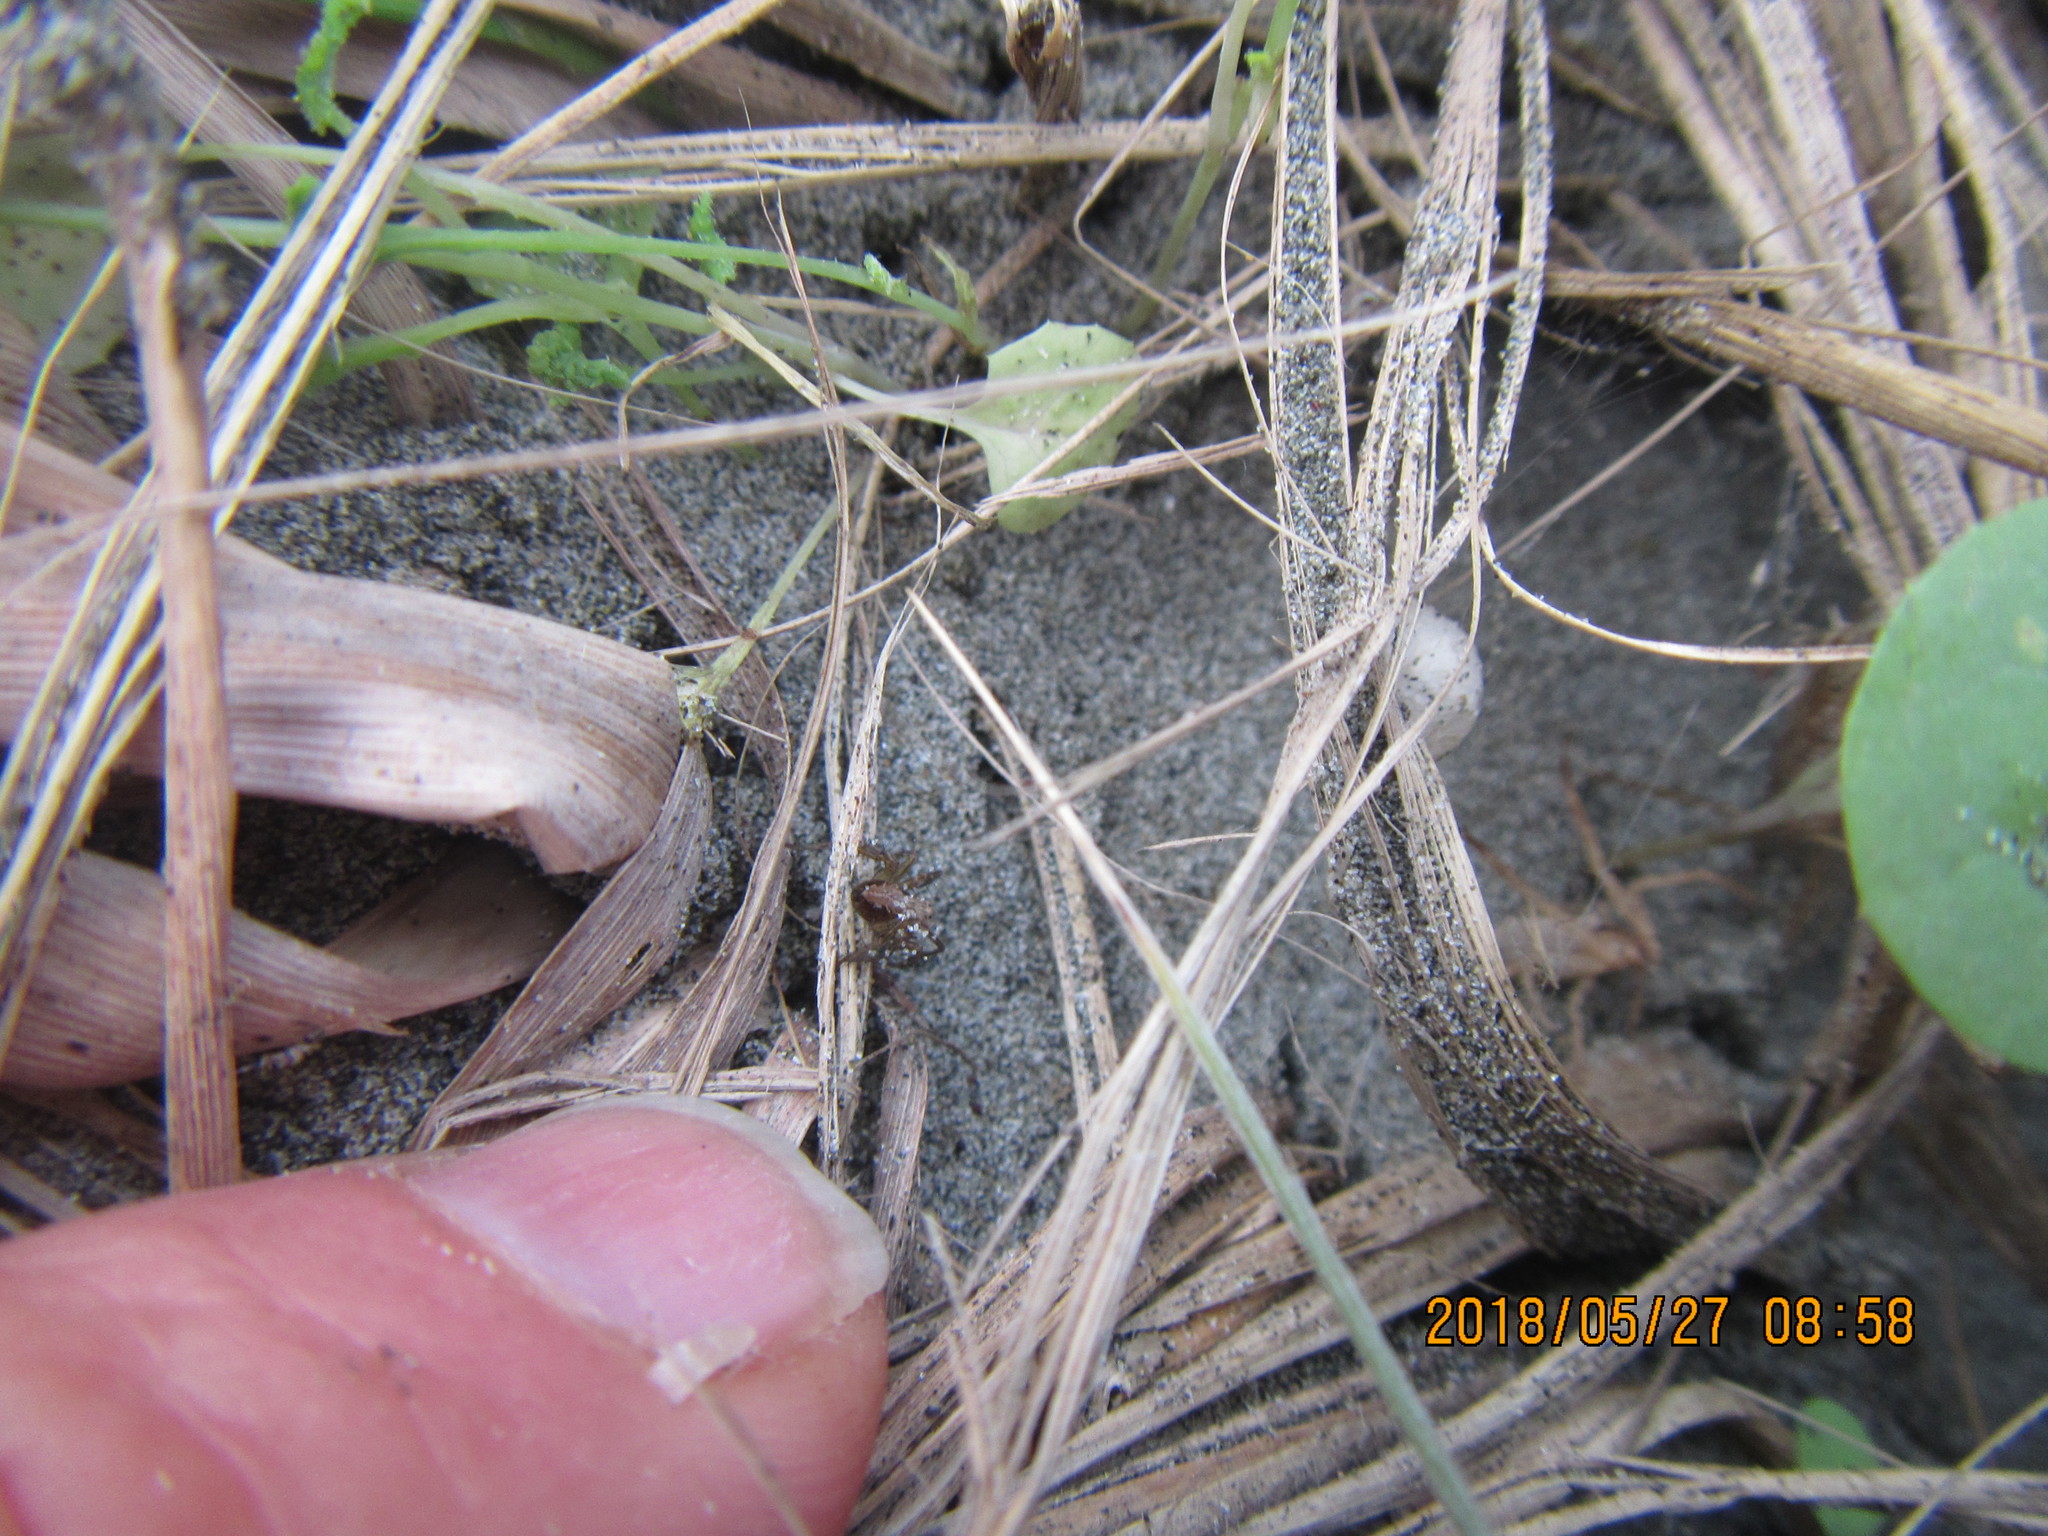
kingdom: Animalia
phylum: Arthropoda
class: Arachnida
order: Araneae
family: Oxyopidae
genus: Oxyopes
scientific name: Oxyopes gracilipes
